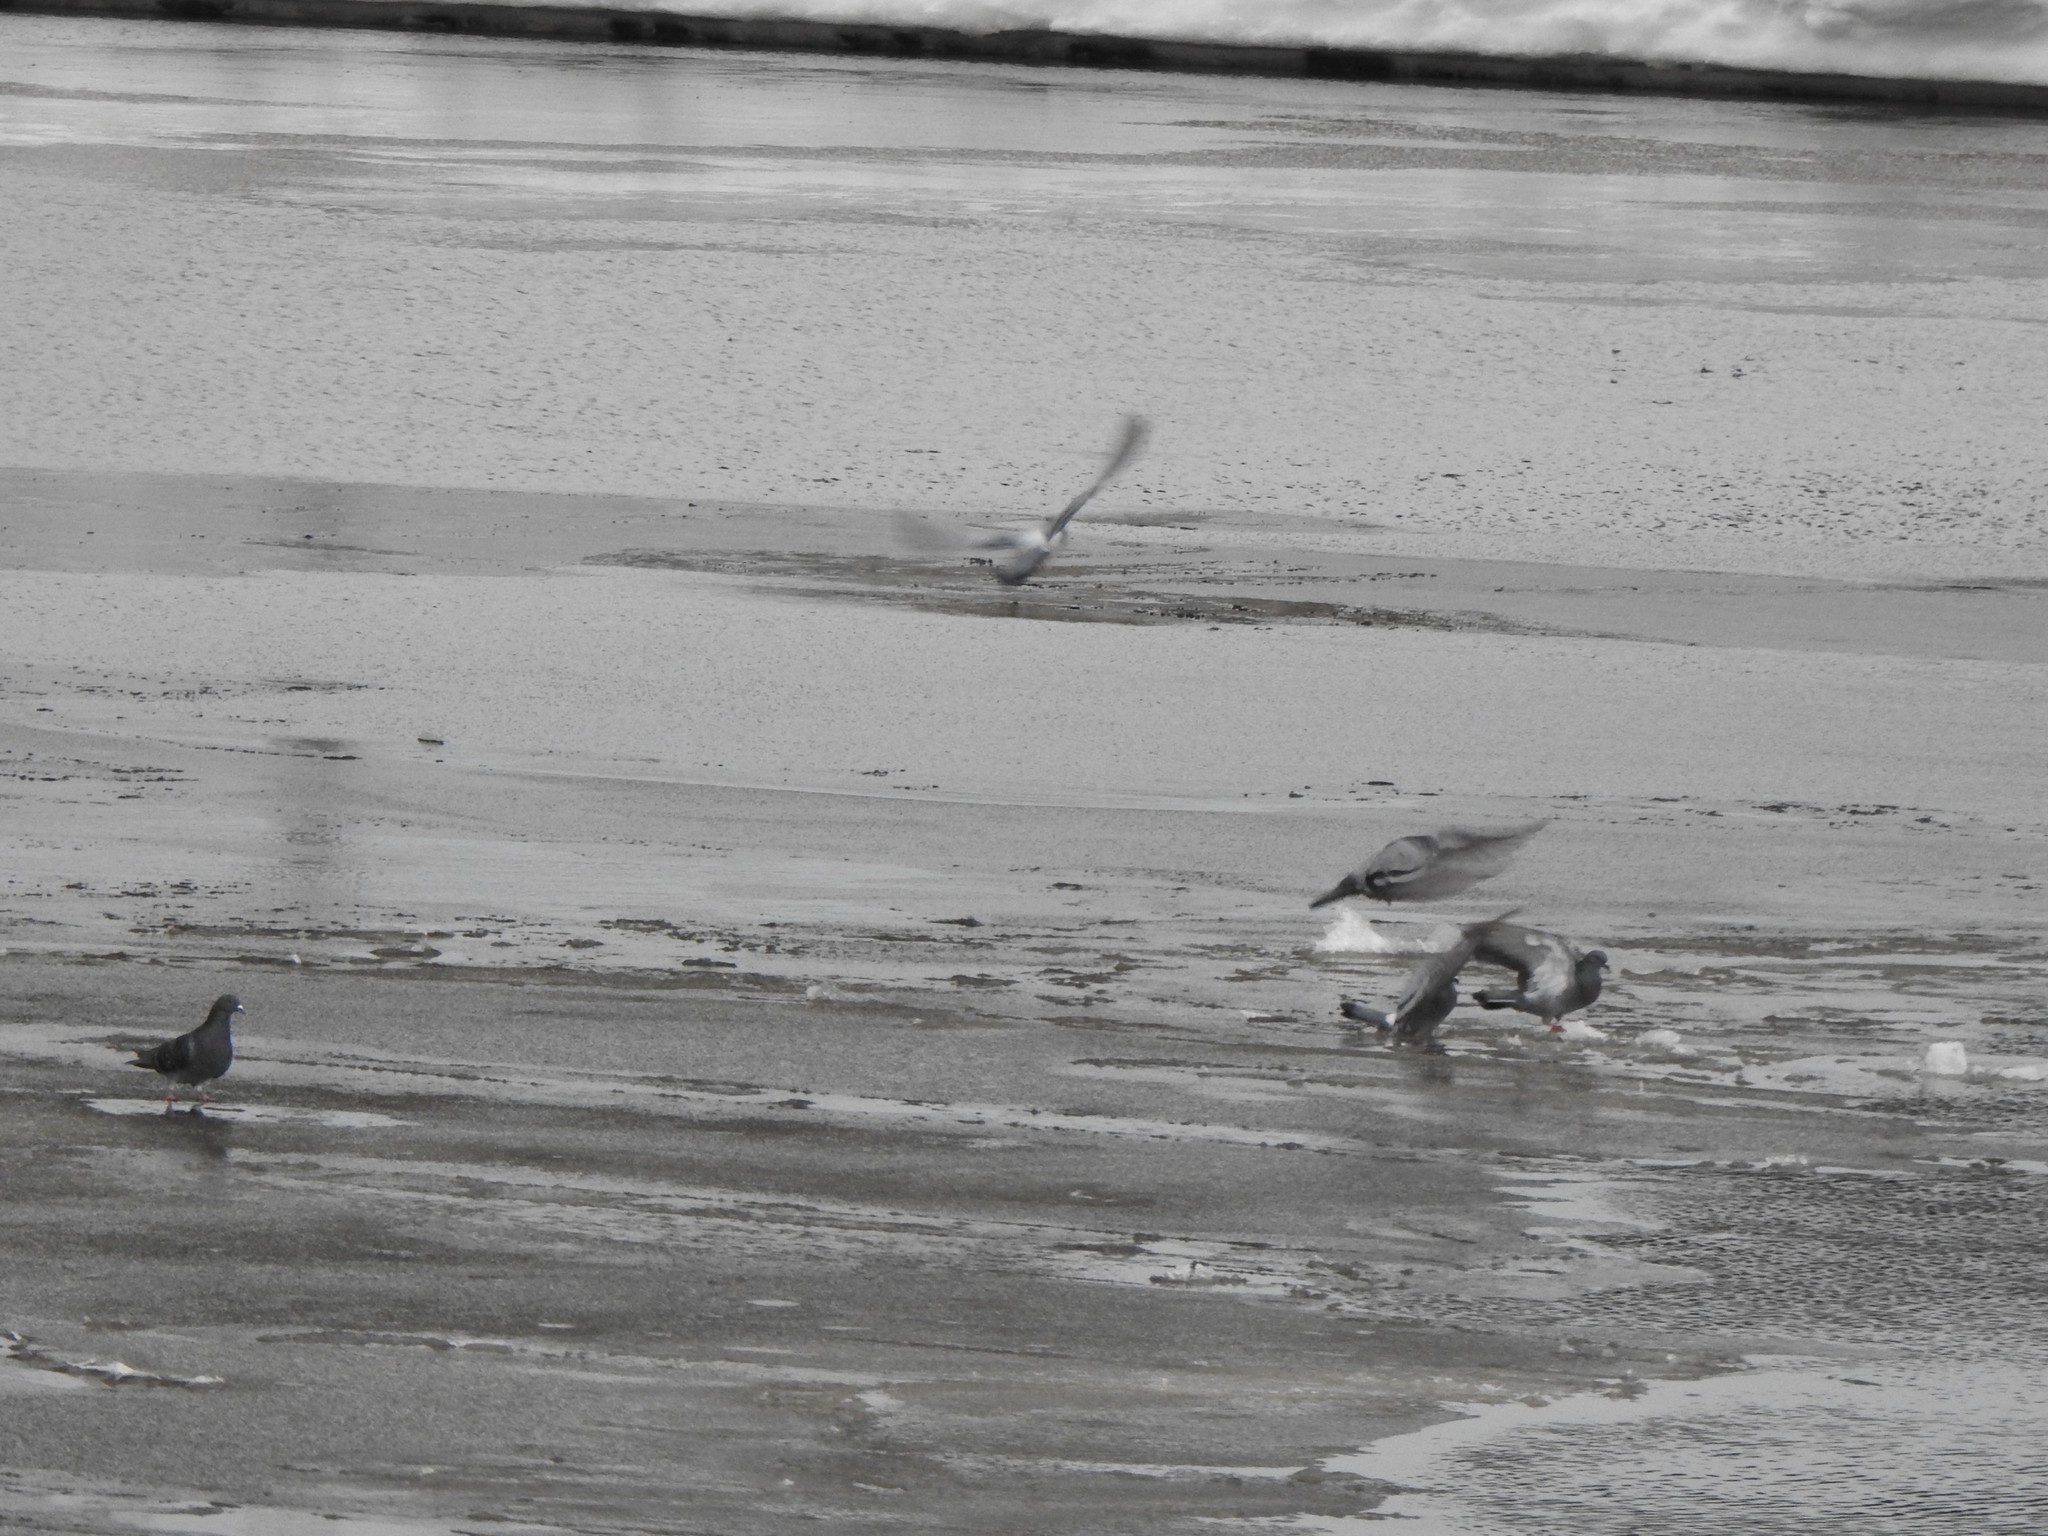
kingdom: Animalia
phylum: Chordata
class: Aves
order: Columbiformes
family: Columbidae
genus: Columba
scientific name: Columba livia
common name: Rock pigeon
